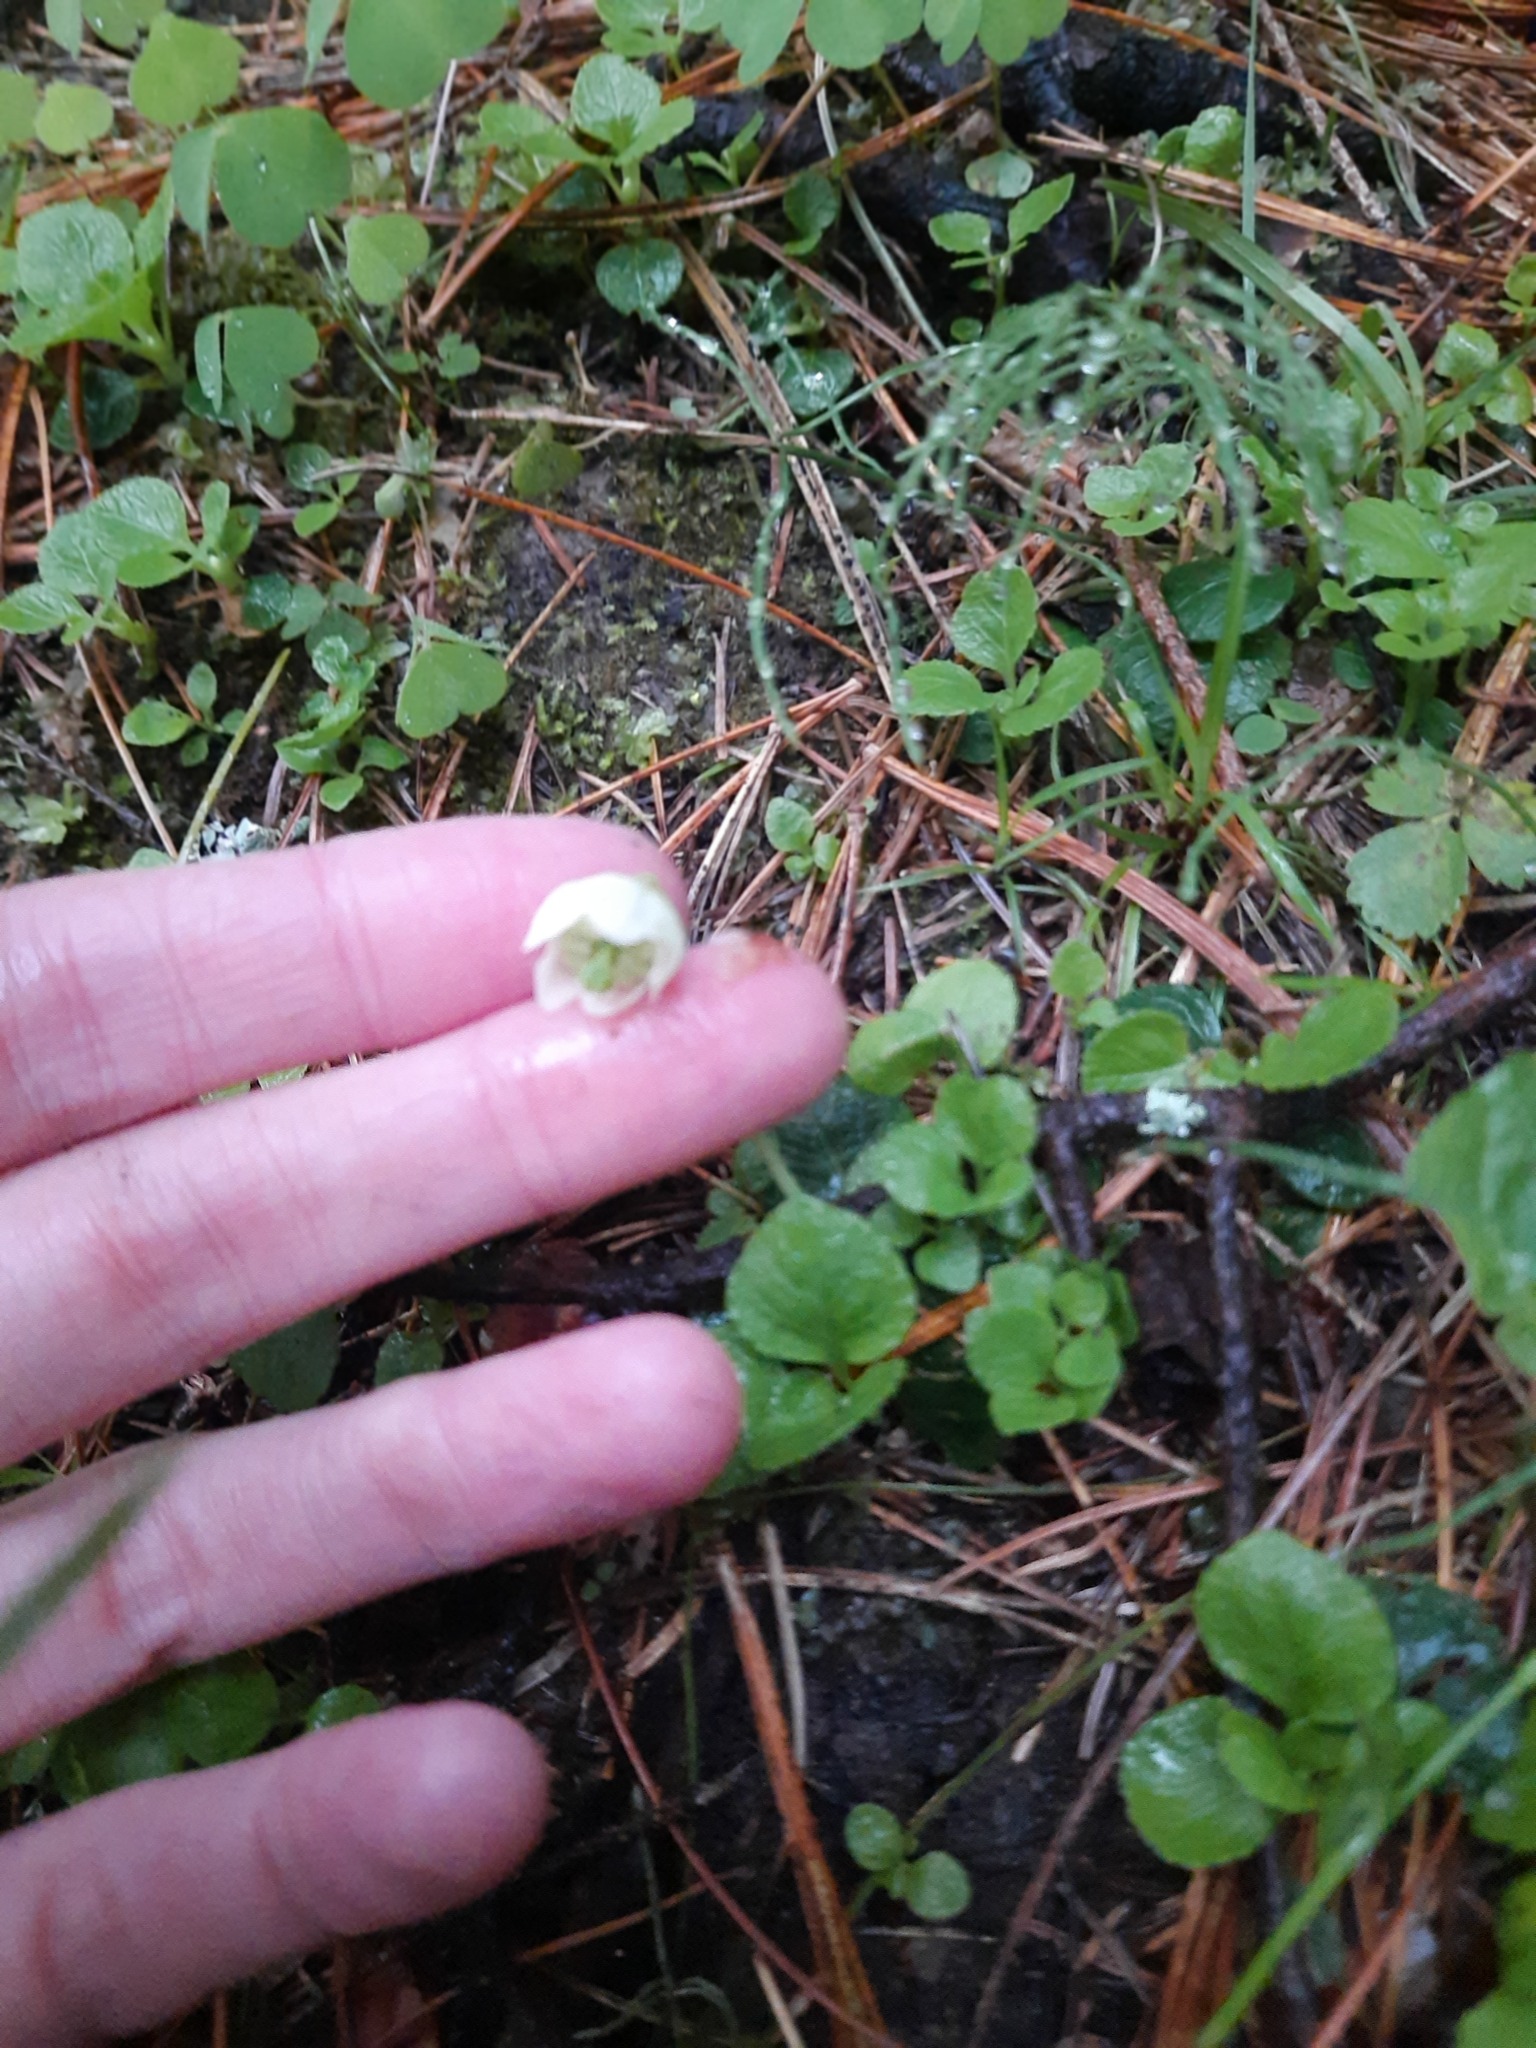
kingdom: Plantae
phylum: Tracheophyta
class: Magnoliopsida
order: Ericales
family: Ericaceae
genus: Moneses
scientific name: Moneses uniflora
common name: One-flowered wintergreen
